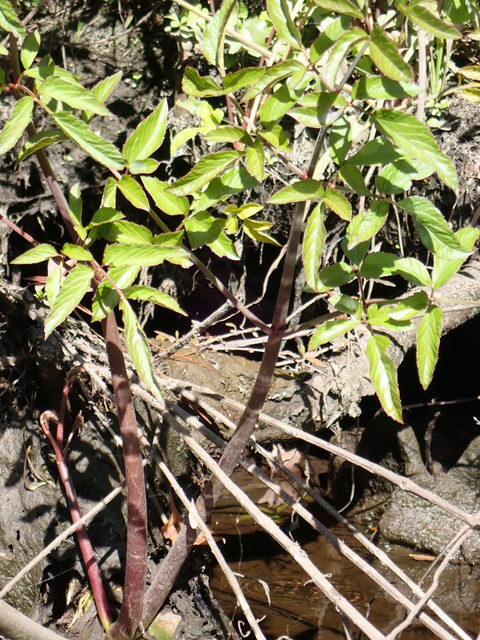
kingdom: Plantae
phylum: Tracheophyta
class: Magnoliopsida
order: Apiales
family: Apiaceae
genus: Cicuta
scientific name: Cicuta maculata
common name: Spotted cowbane
